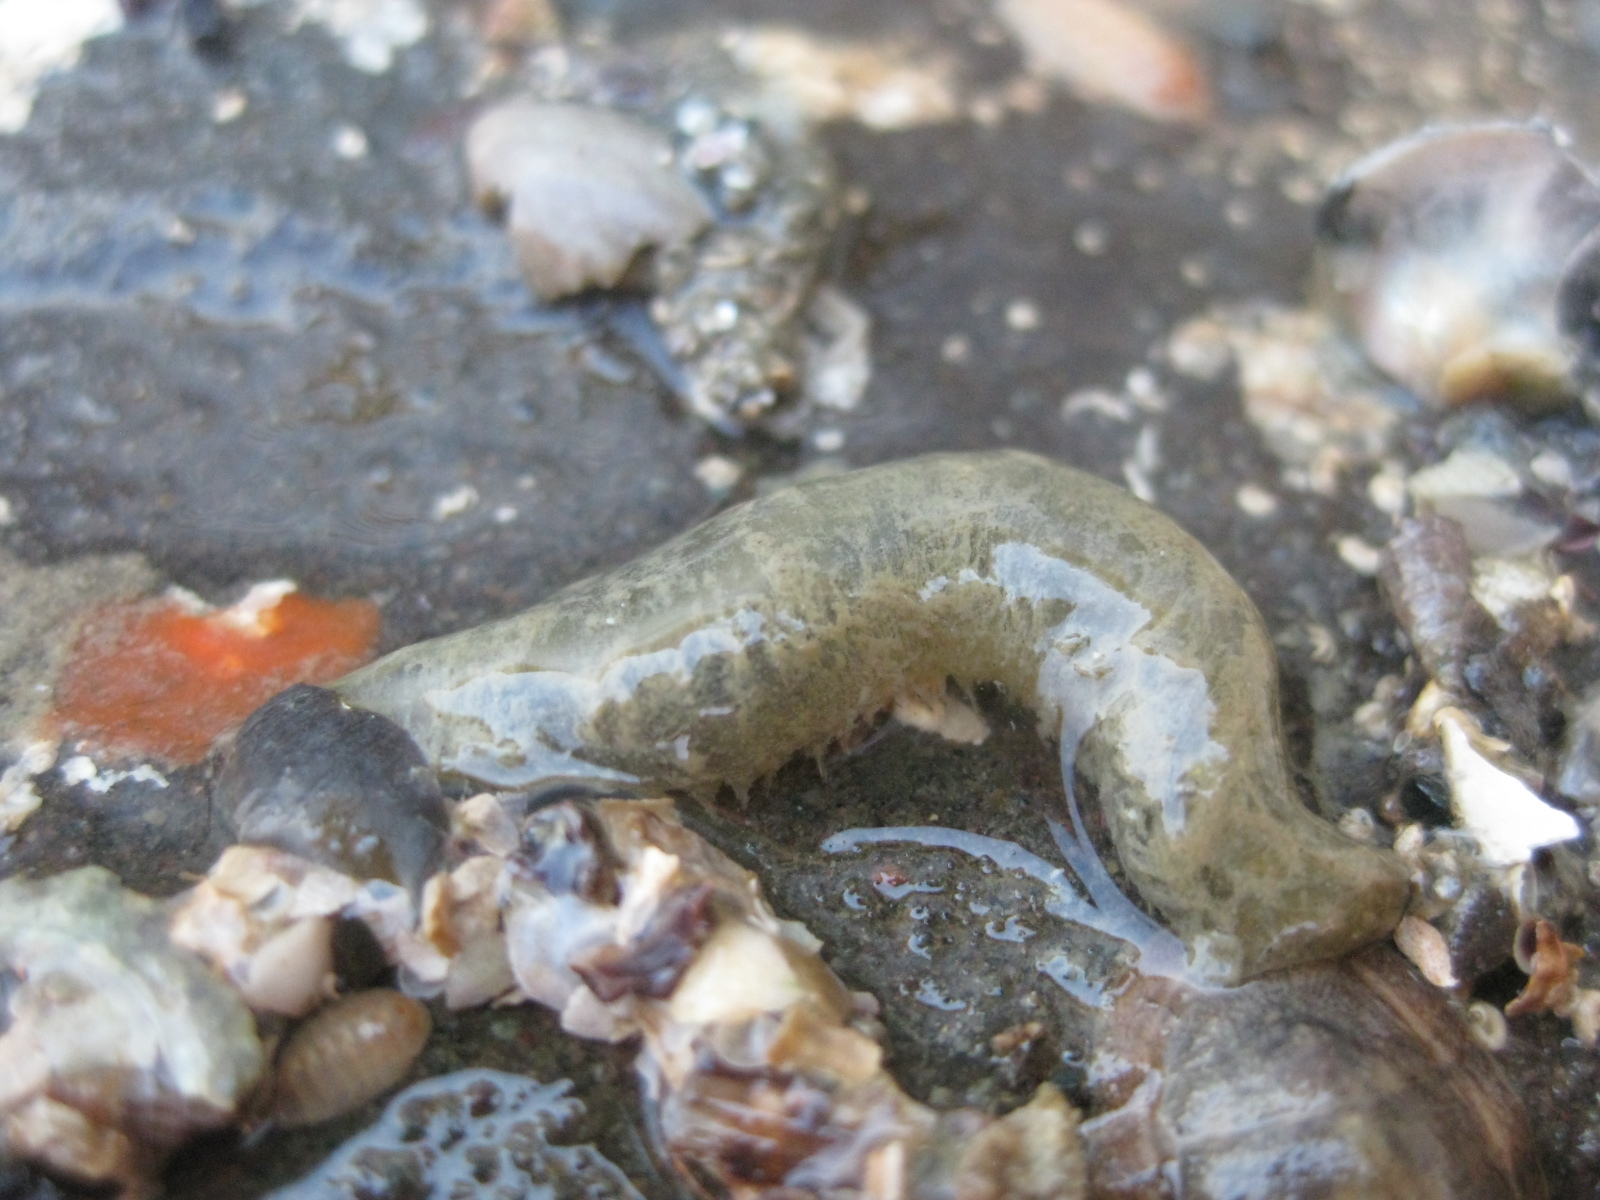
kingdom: Animalia
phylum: Annelida
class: Polychaeta
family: Flabelligeridae
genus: Flabelligera
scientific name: Flabelligera bicolor
